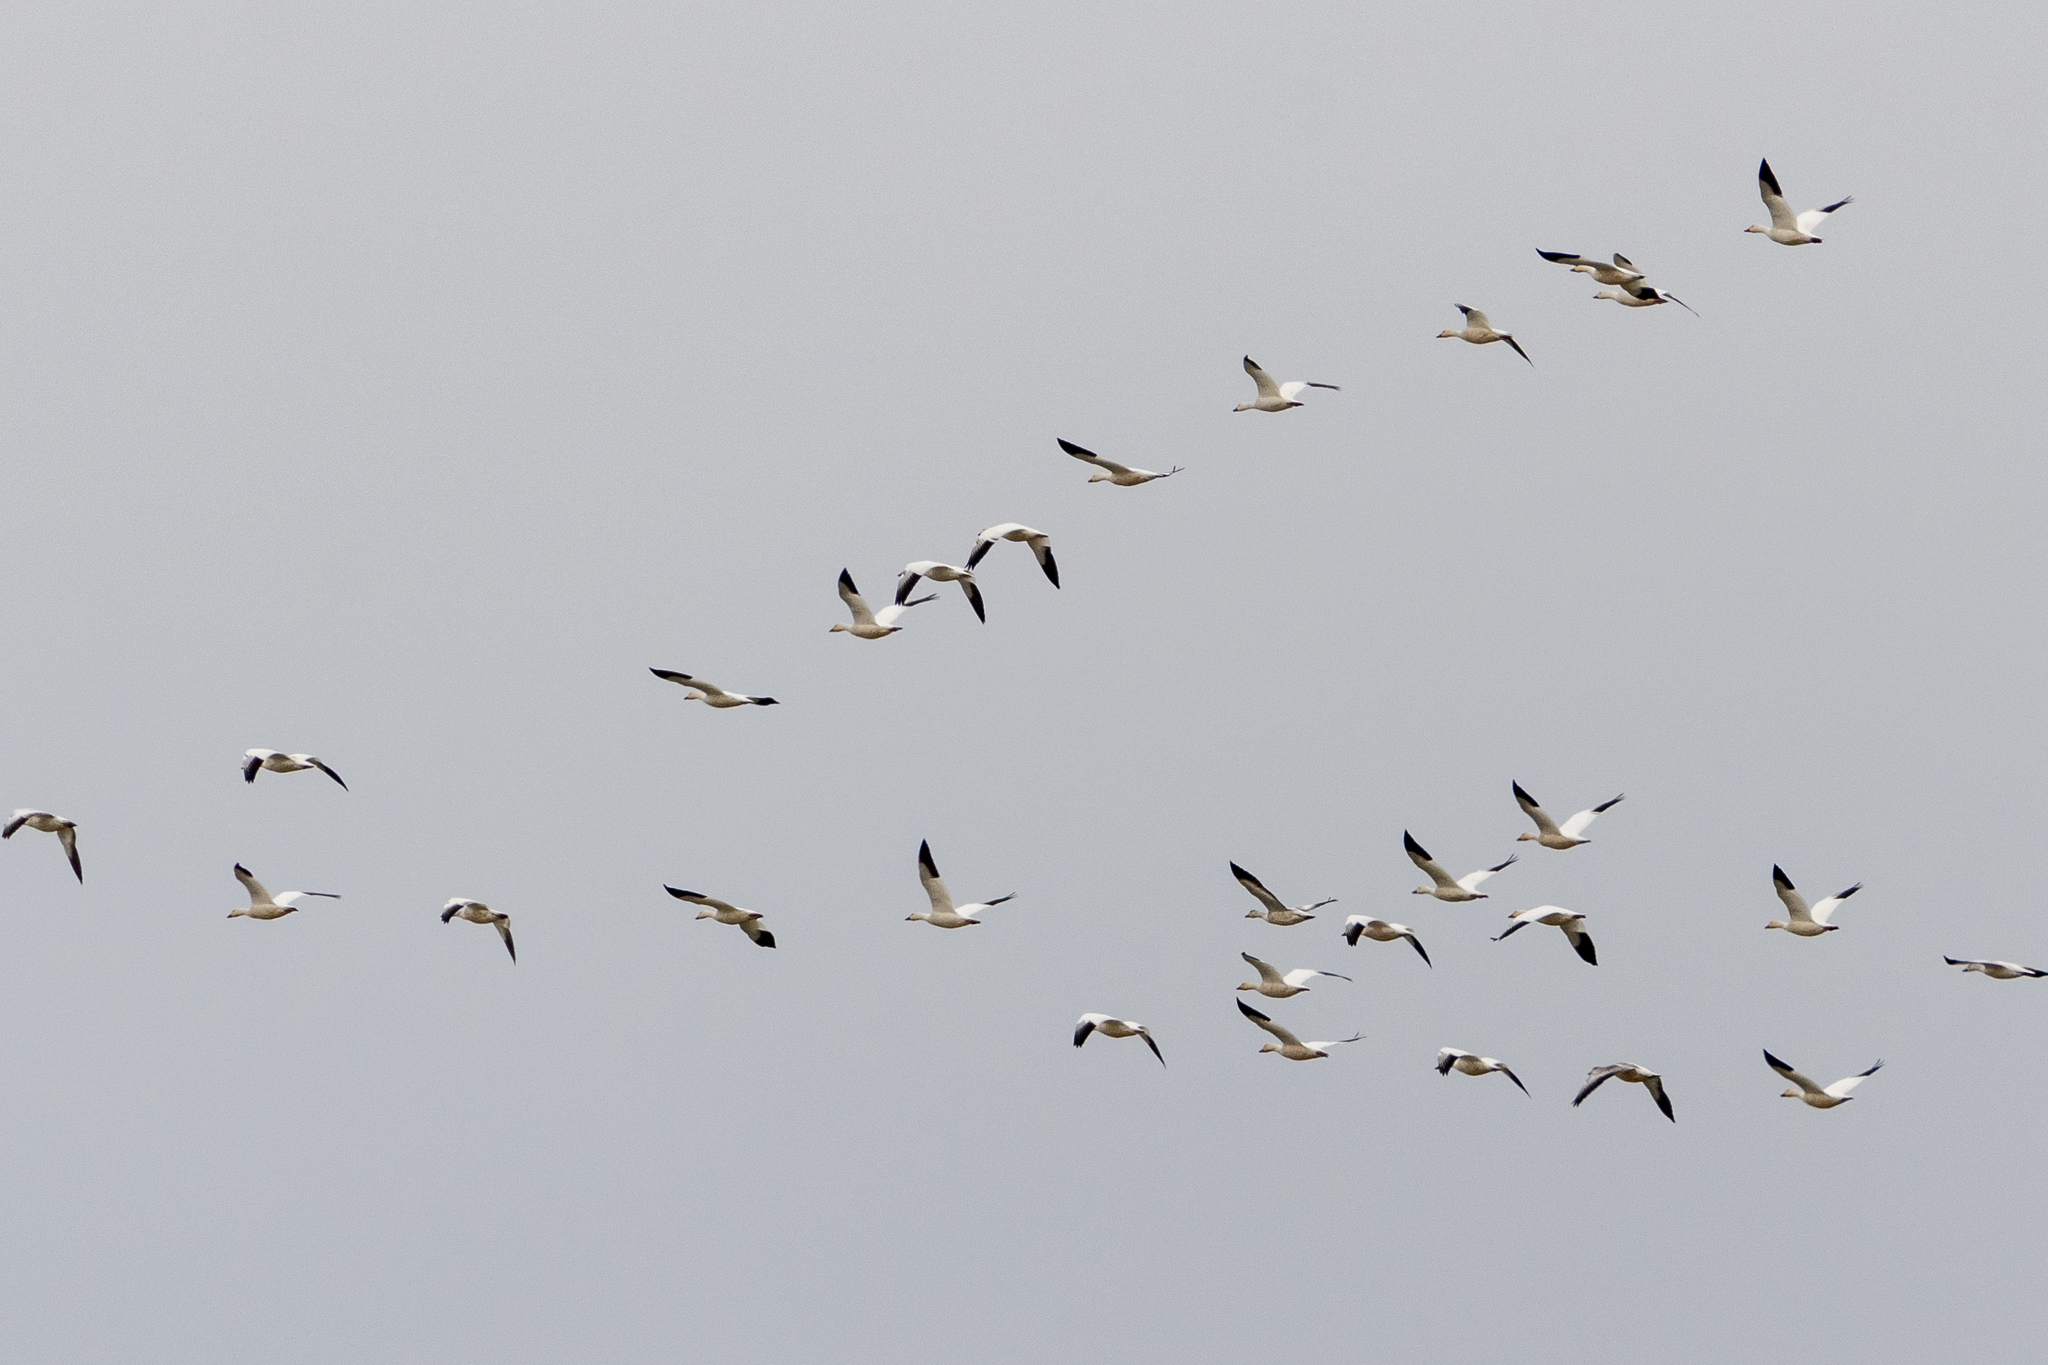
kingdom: Animalia
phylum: Chordata
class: Aves
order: Anseriformes
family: Anatidae
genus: Anser
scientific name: Anser caerulescens
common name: Snow goose
